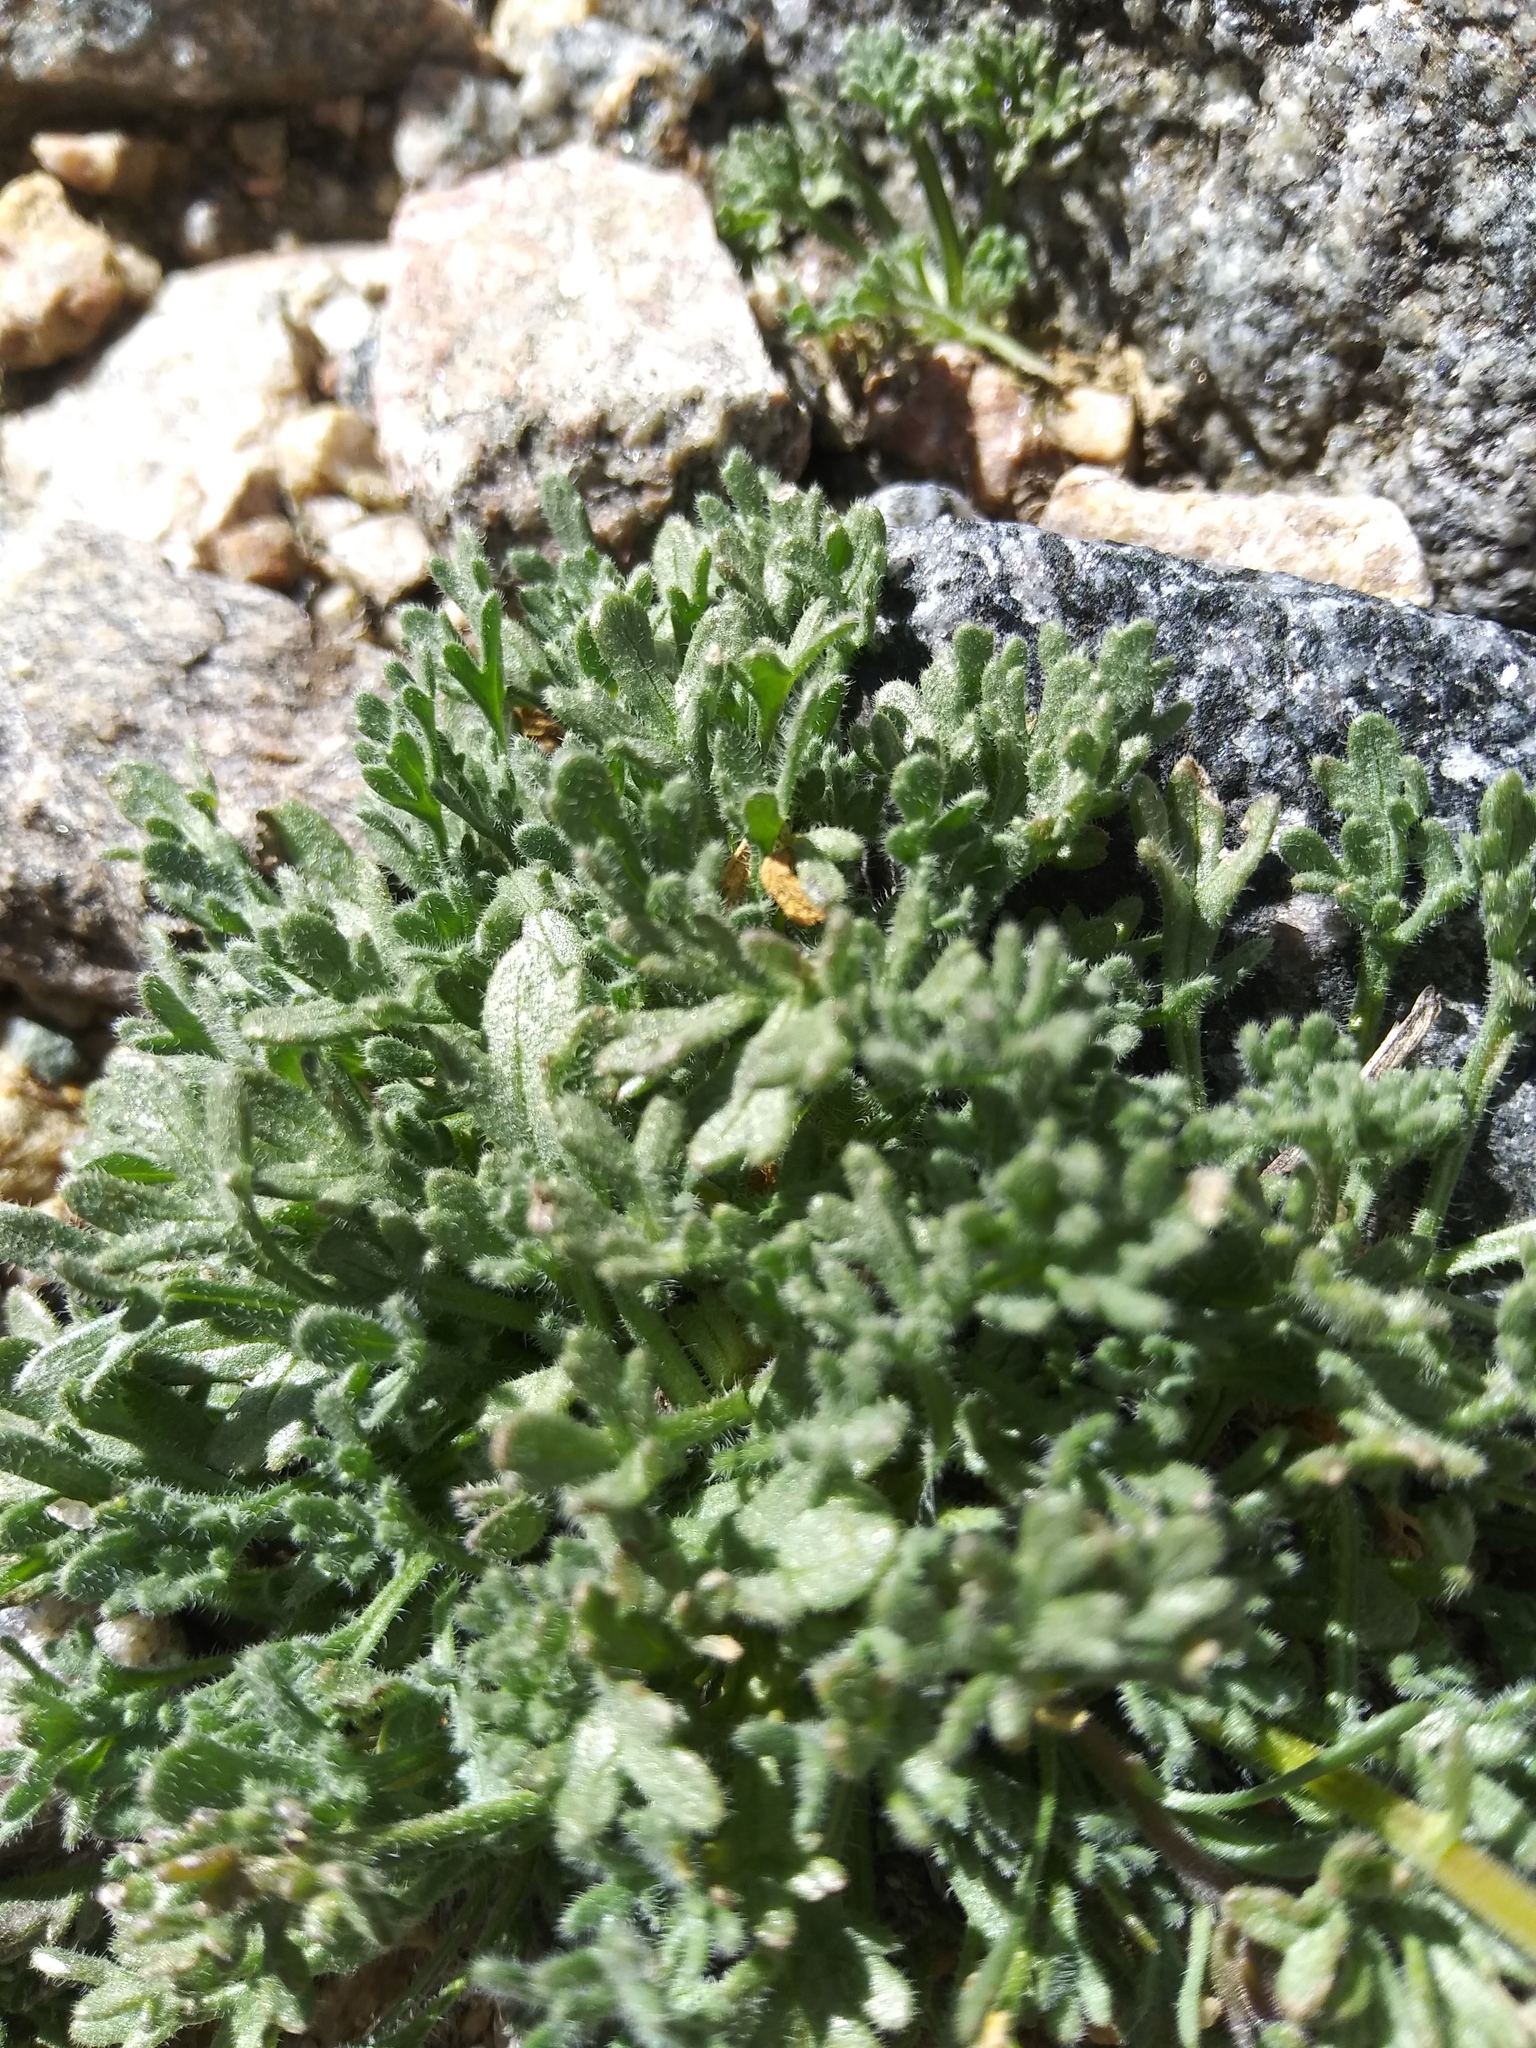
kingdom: Plantae
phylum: Tracheophyta
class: Magnoliopsida
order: Asterales
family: Asteraceae
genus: Erigeron
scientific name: Erigeron compositus
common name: Dwarf mountain fleabane
